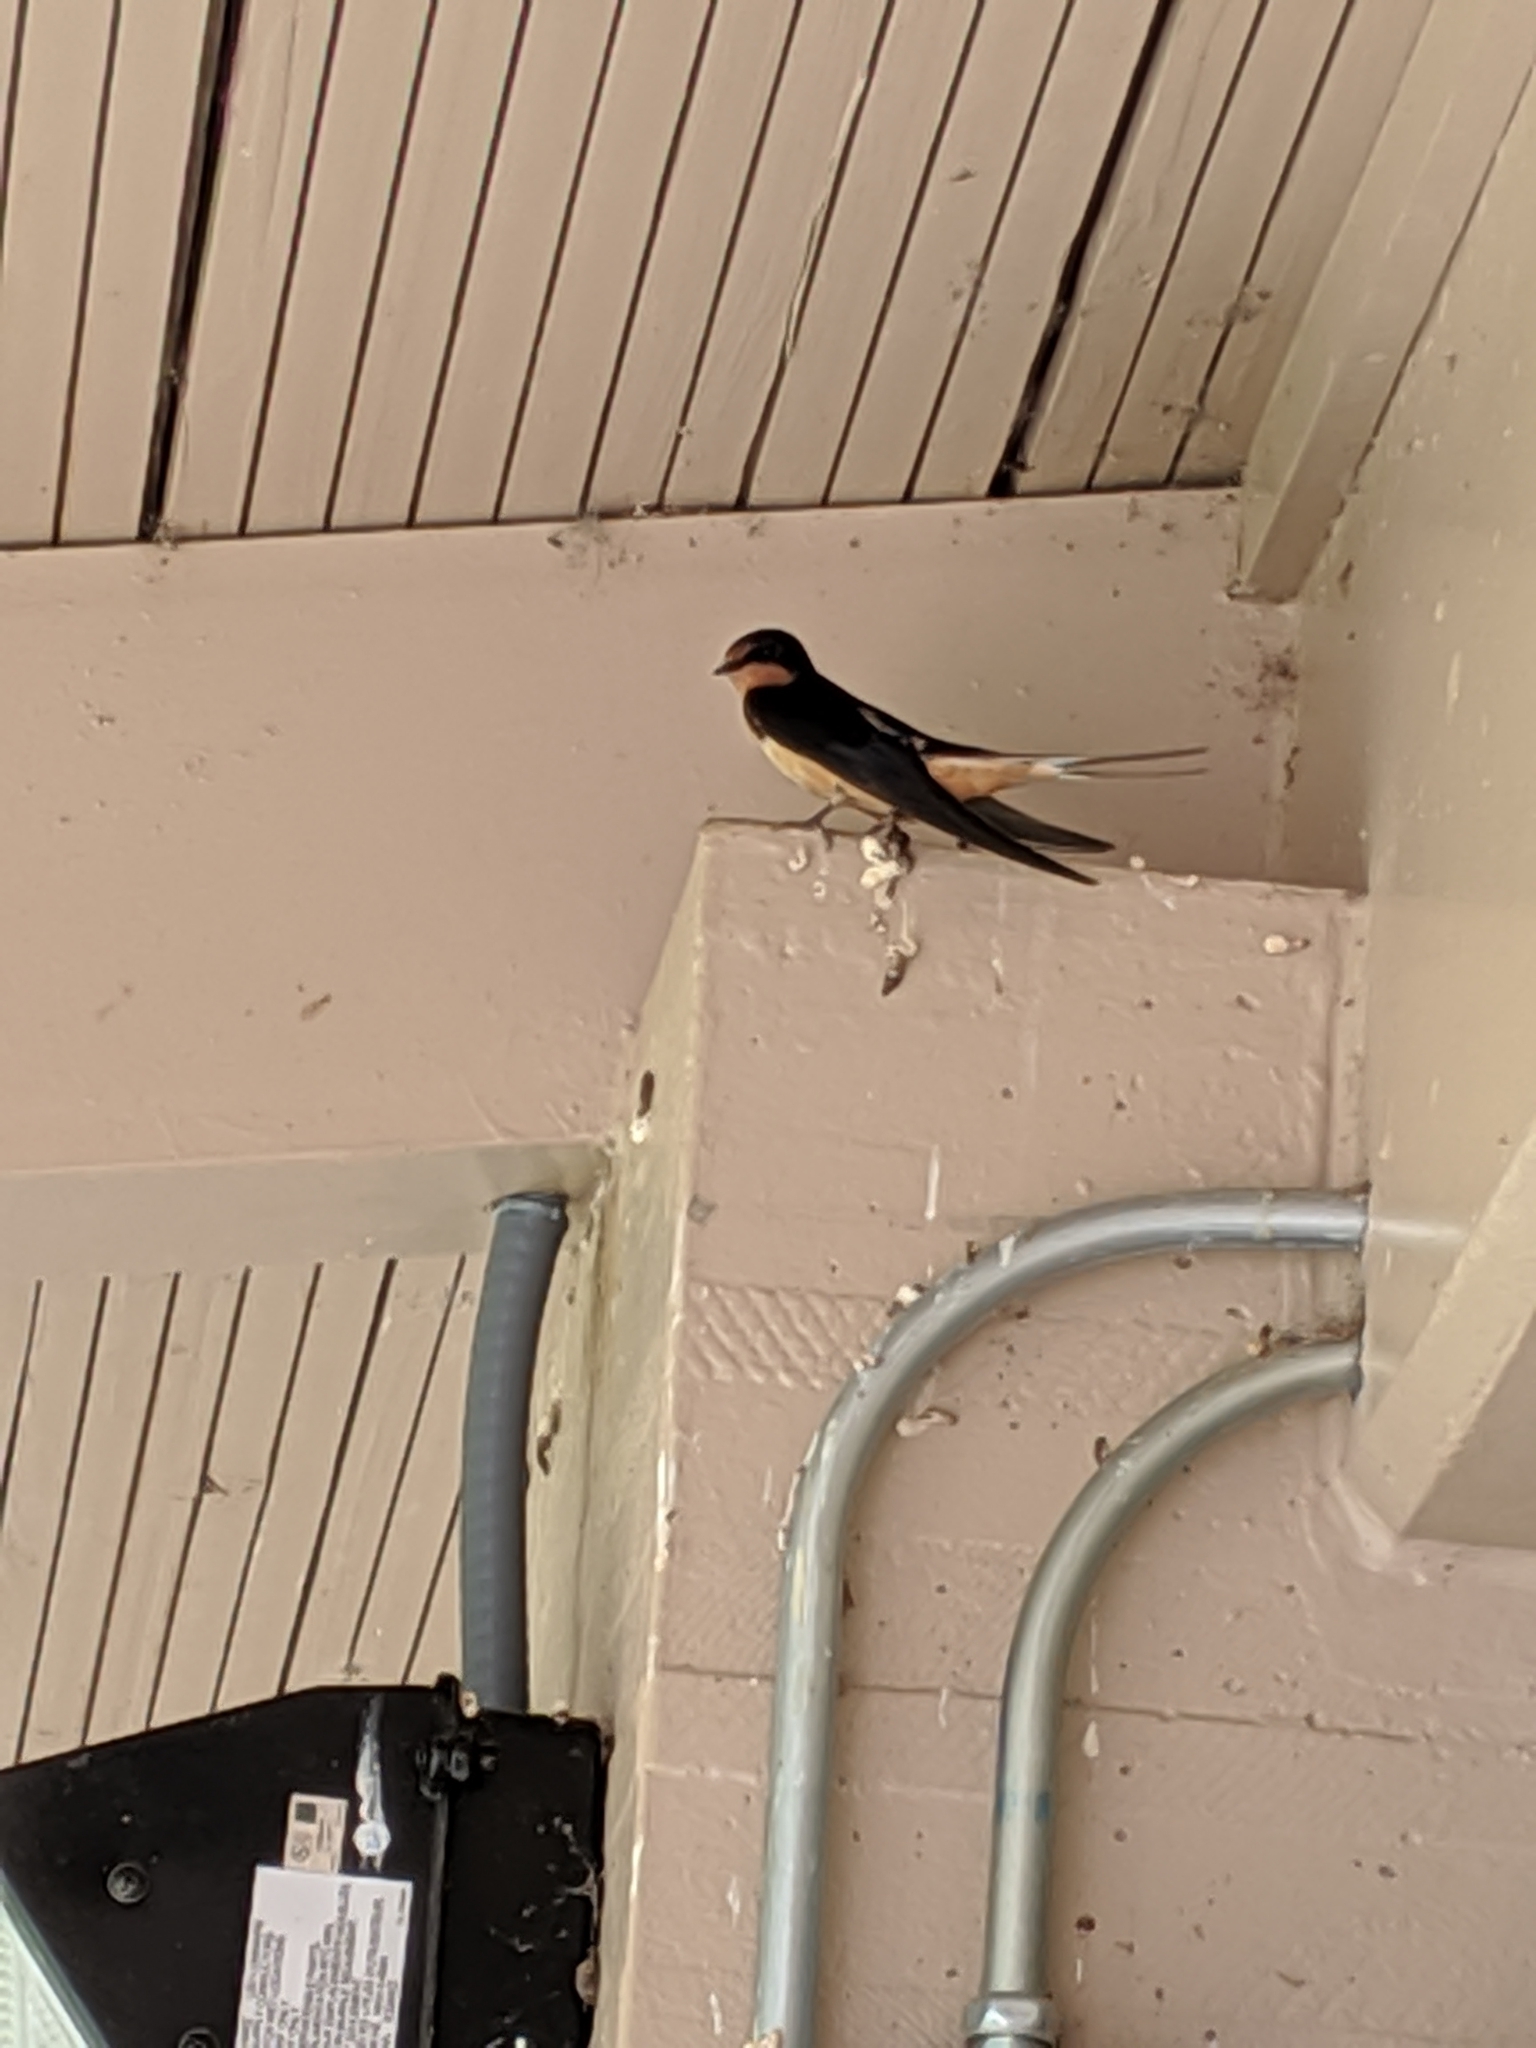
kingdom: Animalia
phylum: Chordata
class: Aves
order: Passeriformes
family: Hirundinidae
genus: Hirundo
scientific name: Hirundo rustica
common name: Barn swallow
